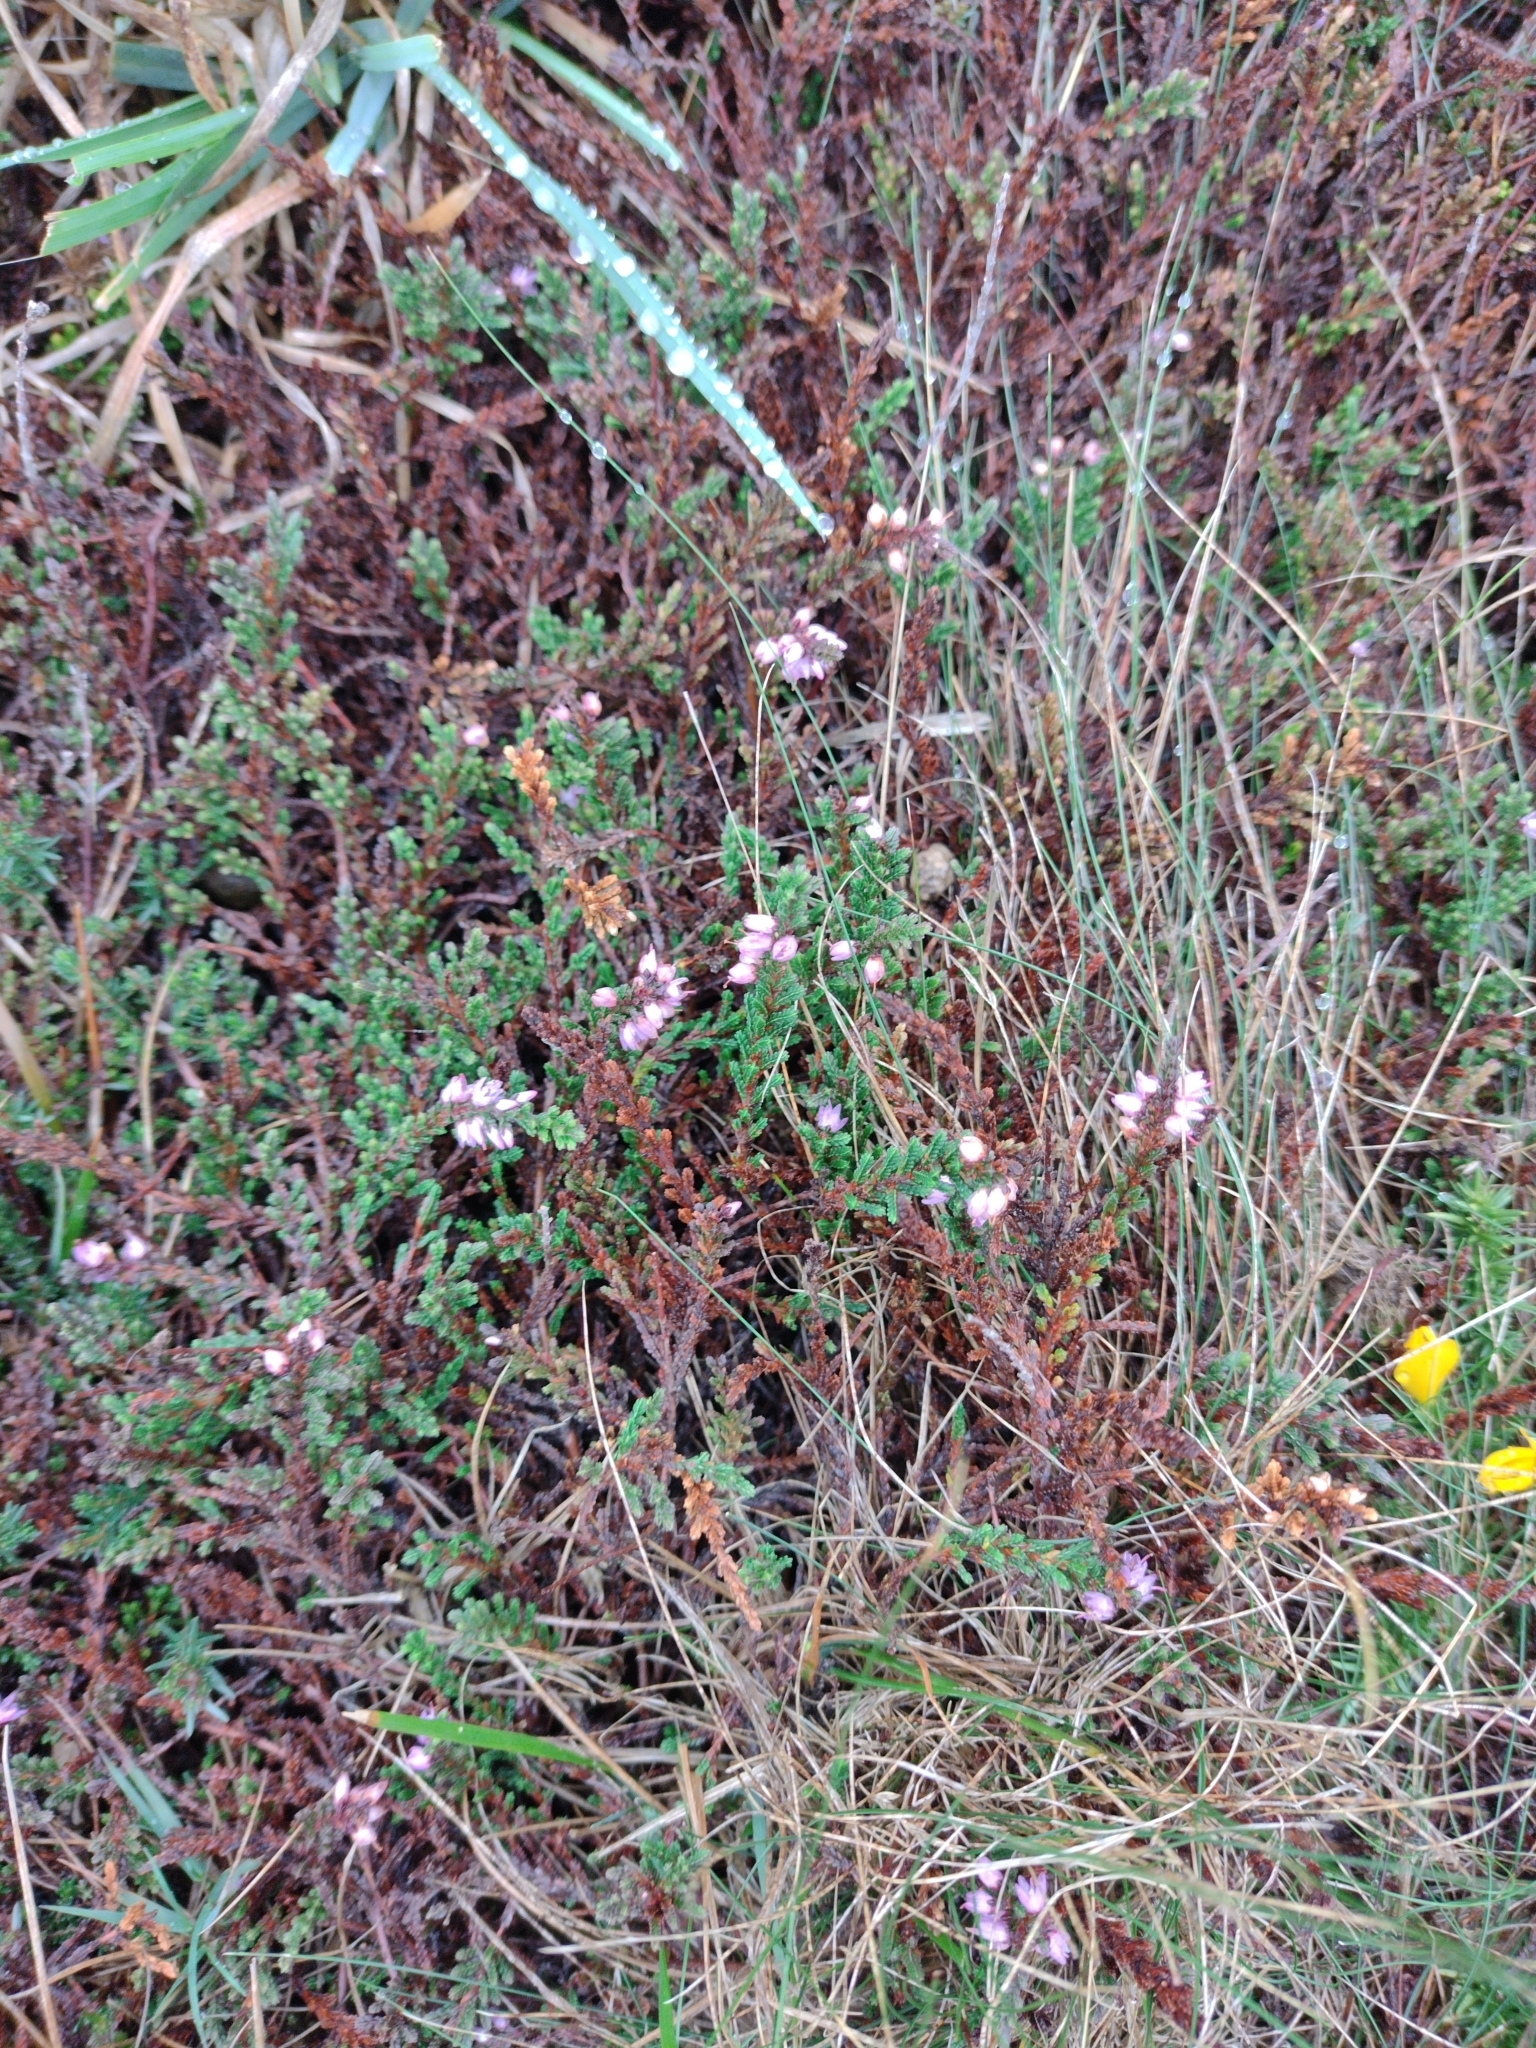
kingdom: Plantae
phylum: Tracheophyta
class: Magnoliopsida
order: Ericales
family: Ericaceae
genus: Calluna
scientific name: Calluna vulgaris
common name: Heather
